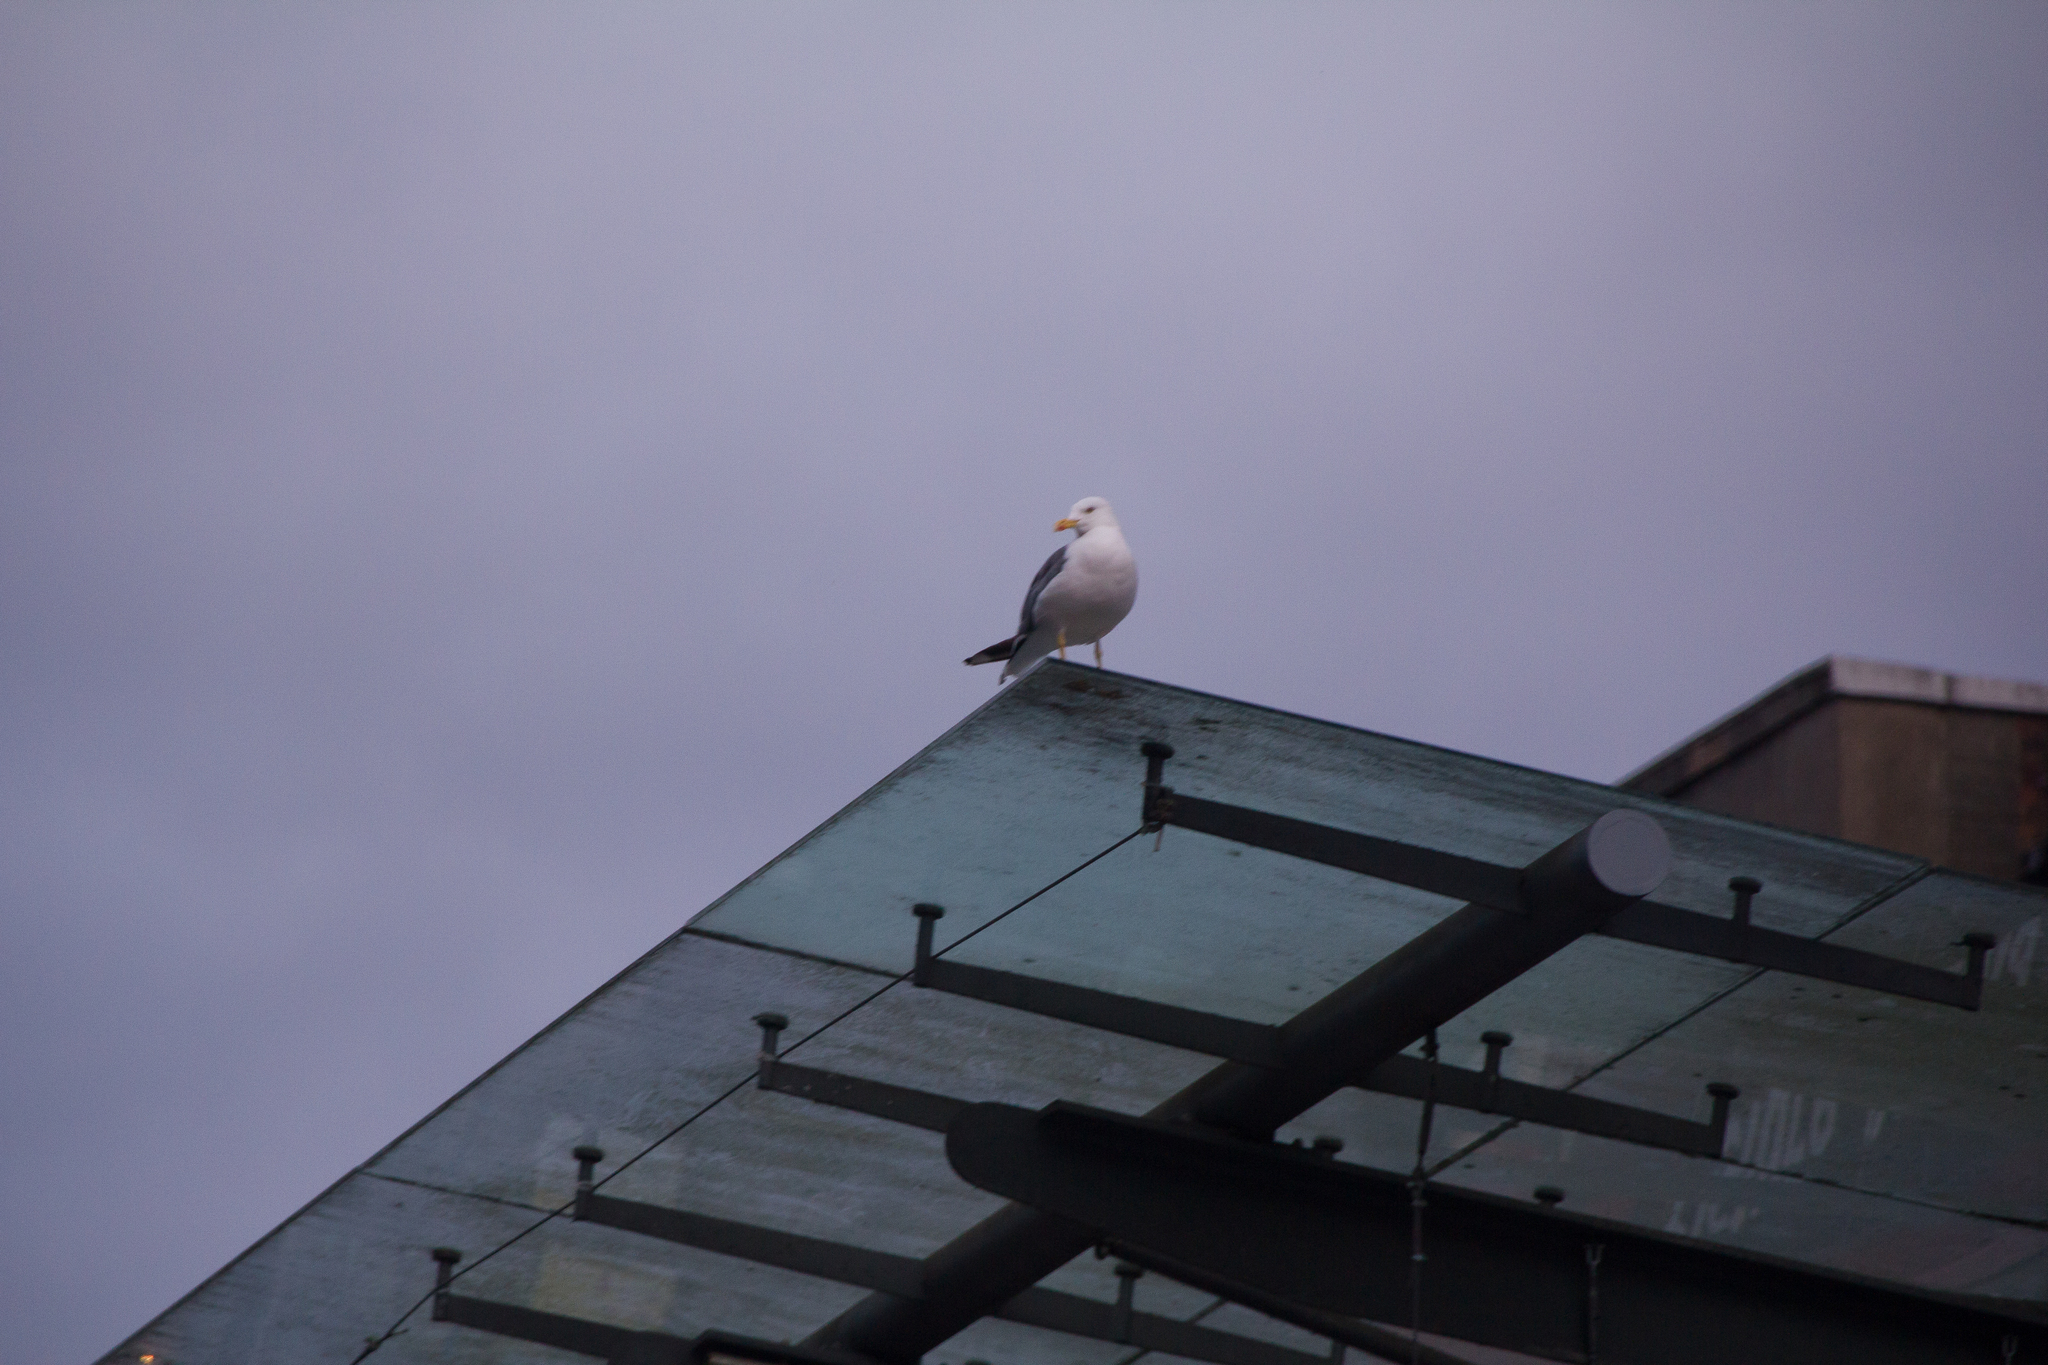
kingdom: Animalia
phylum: Chordata
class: Aves
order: Charadriiformes
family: Laridae
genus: Larus
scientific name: Larus fuscus
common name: Lesser black-backed gull
